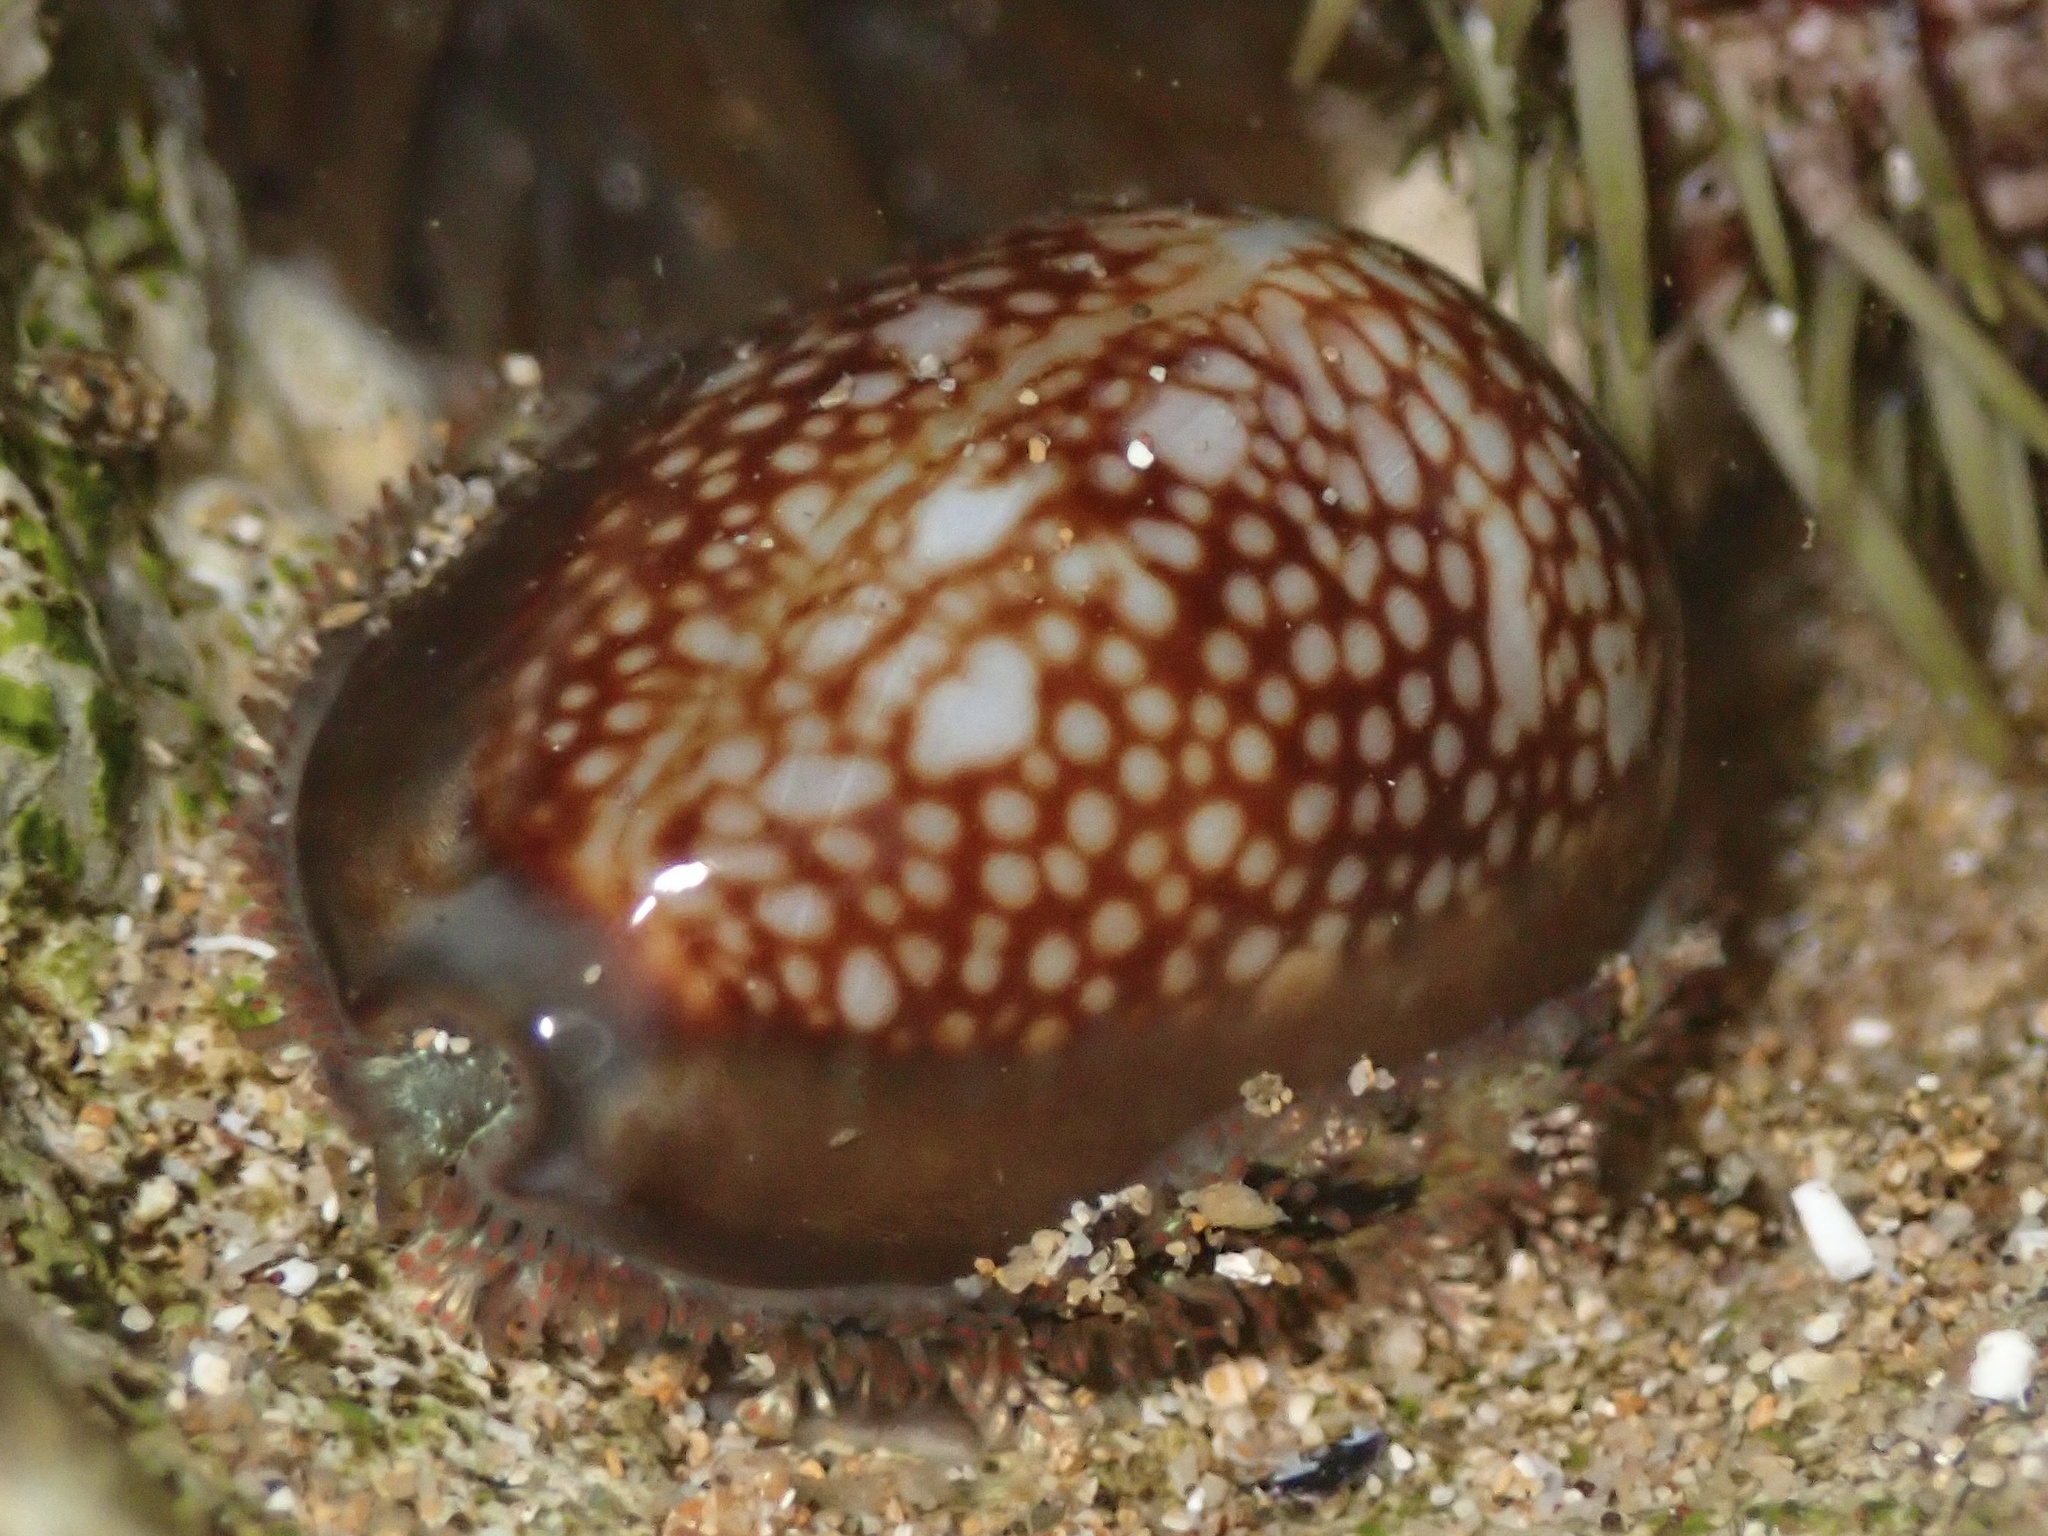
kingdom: Animalia
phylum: Mollusca
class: Gastropoda
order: Littorinimorpha
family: Cypraeidae
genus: Monetaria
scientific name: Monetaria caputophidii
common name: Snake's head cowry
